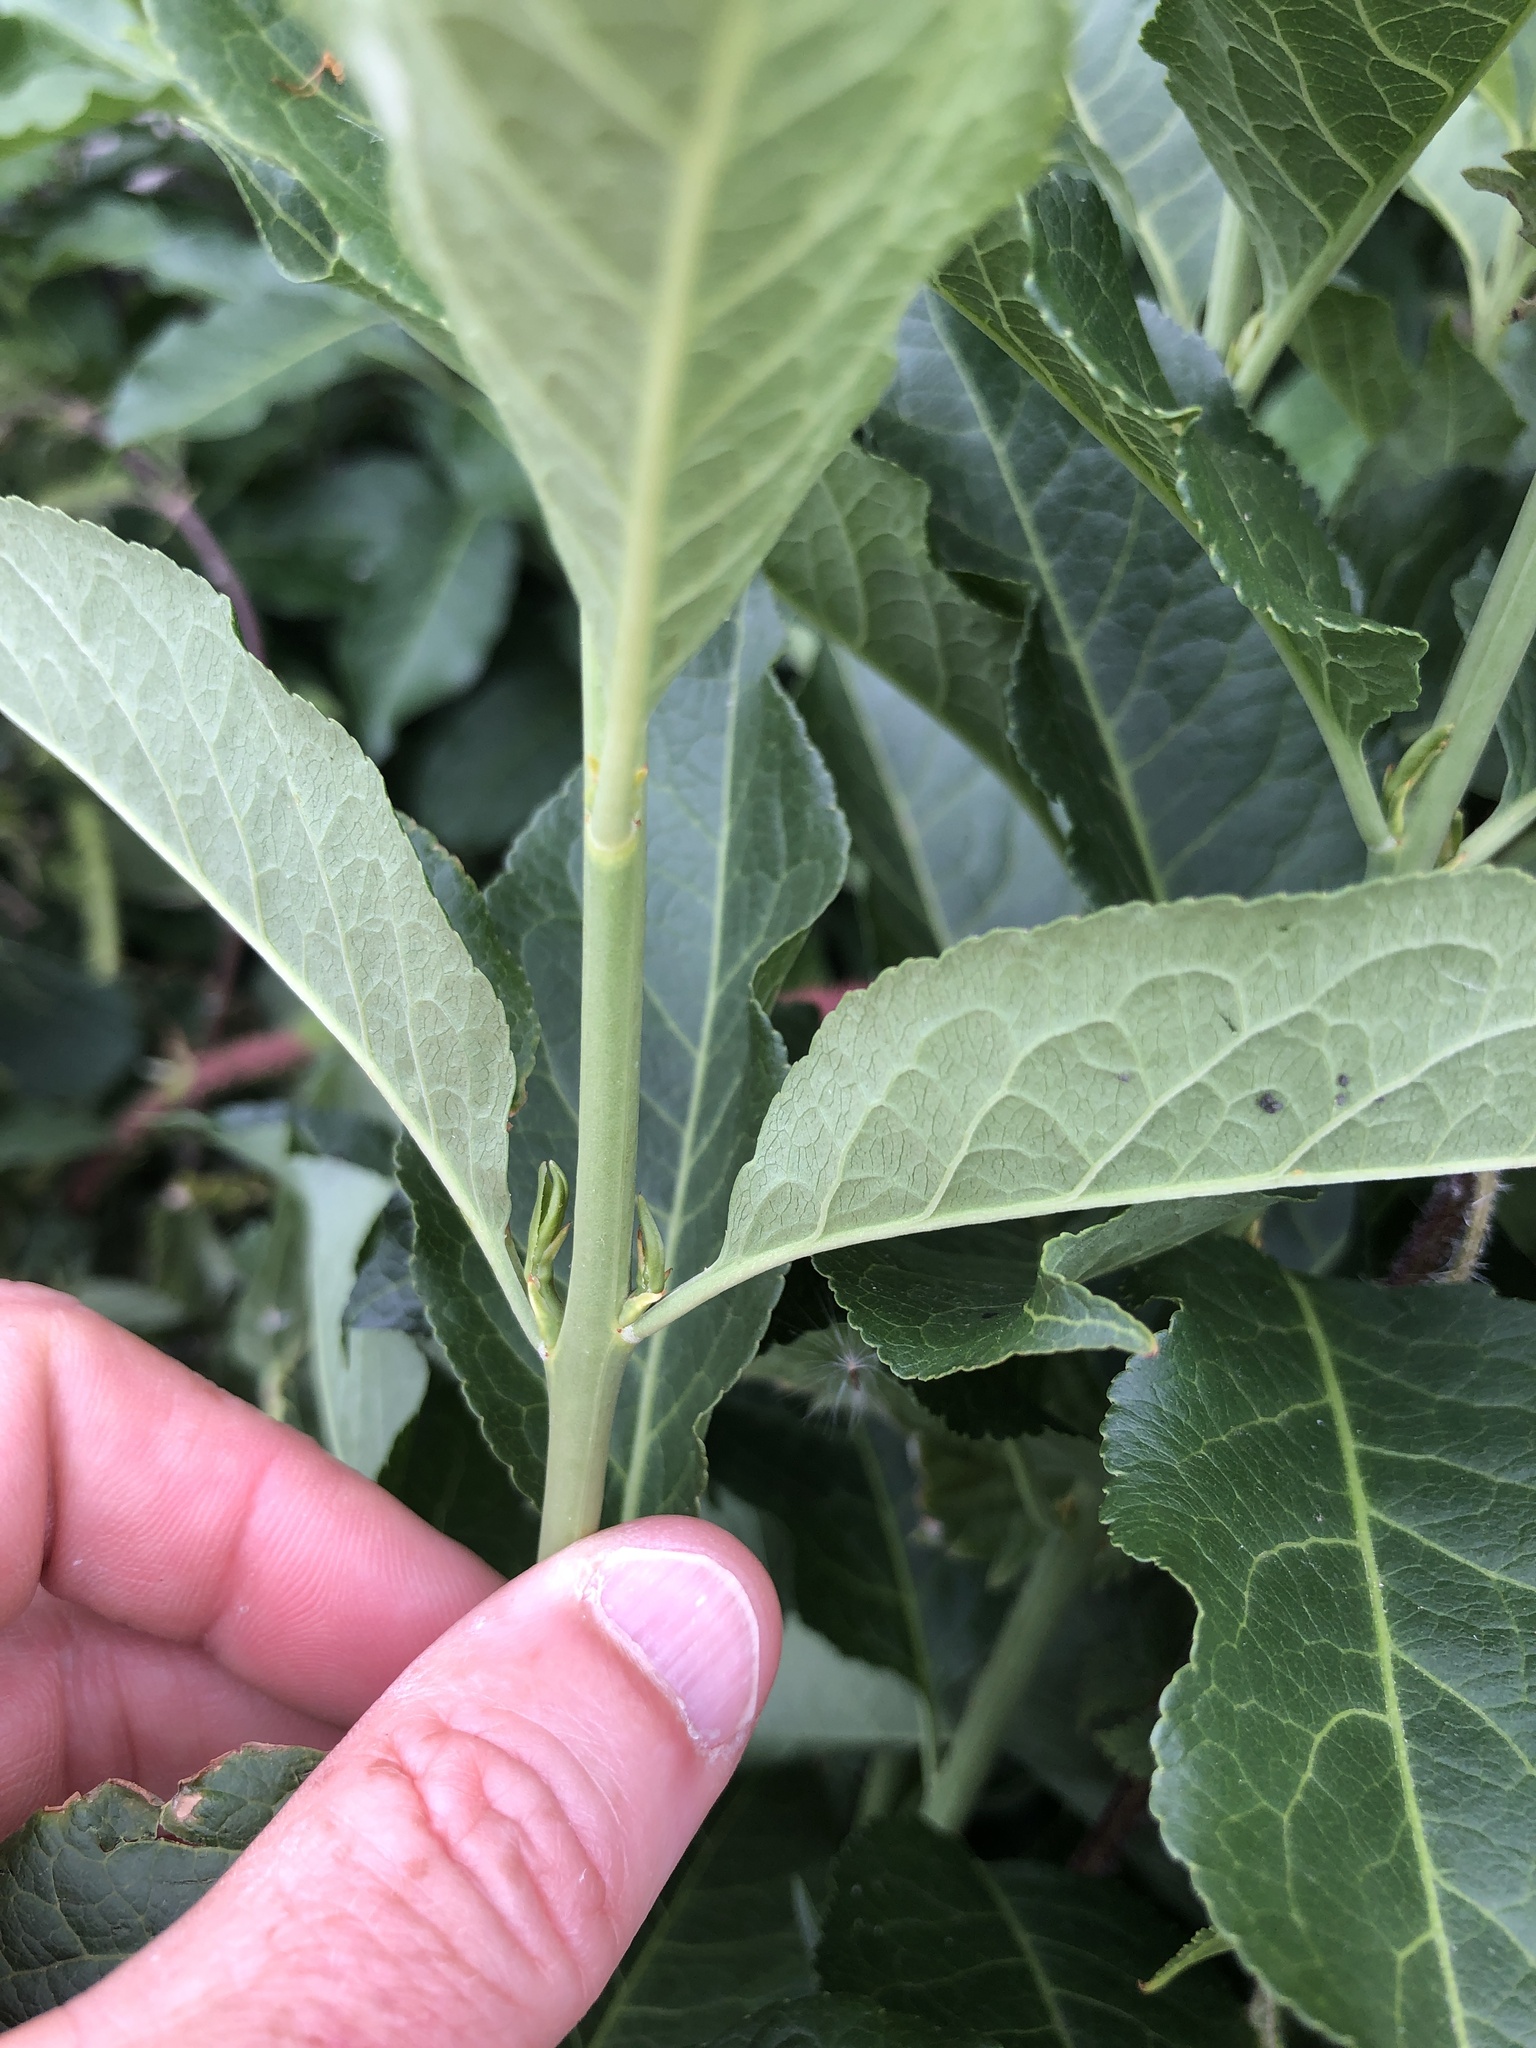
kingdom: Plantae
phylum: Tracheophyta
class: Magnoliopsida
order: Celastrales
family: Celastraceae
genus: Euonymus
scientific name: Euonymus europaeus
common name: Spindle
